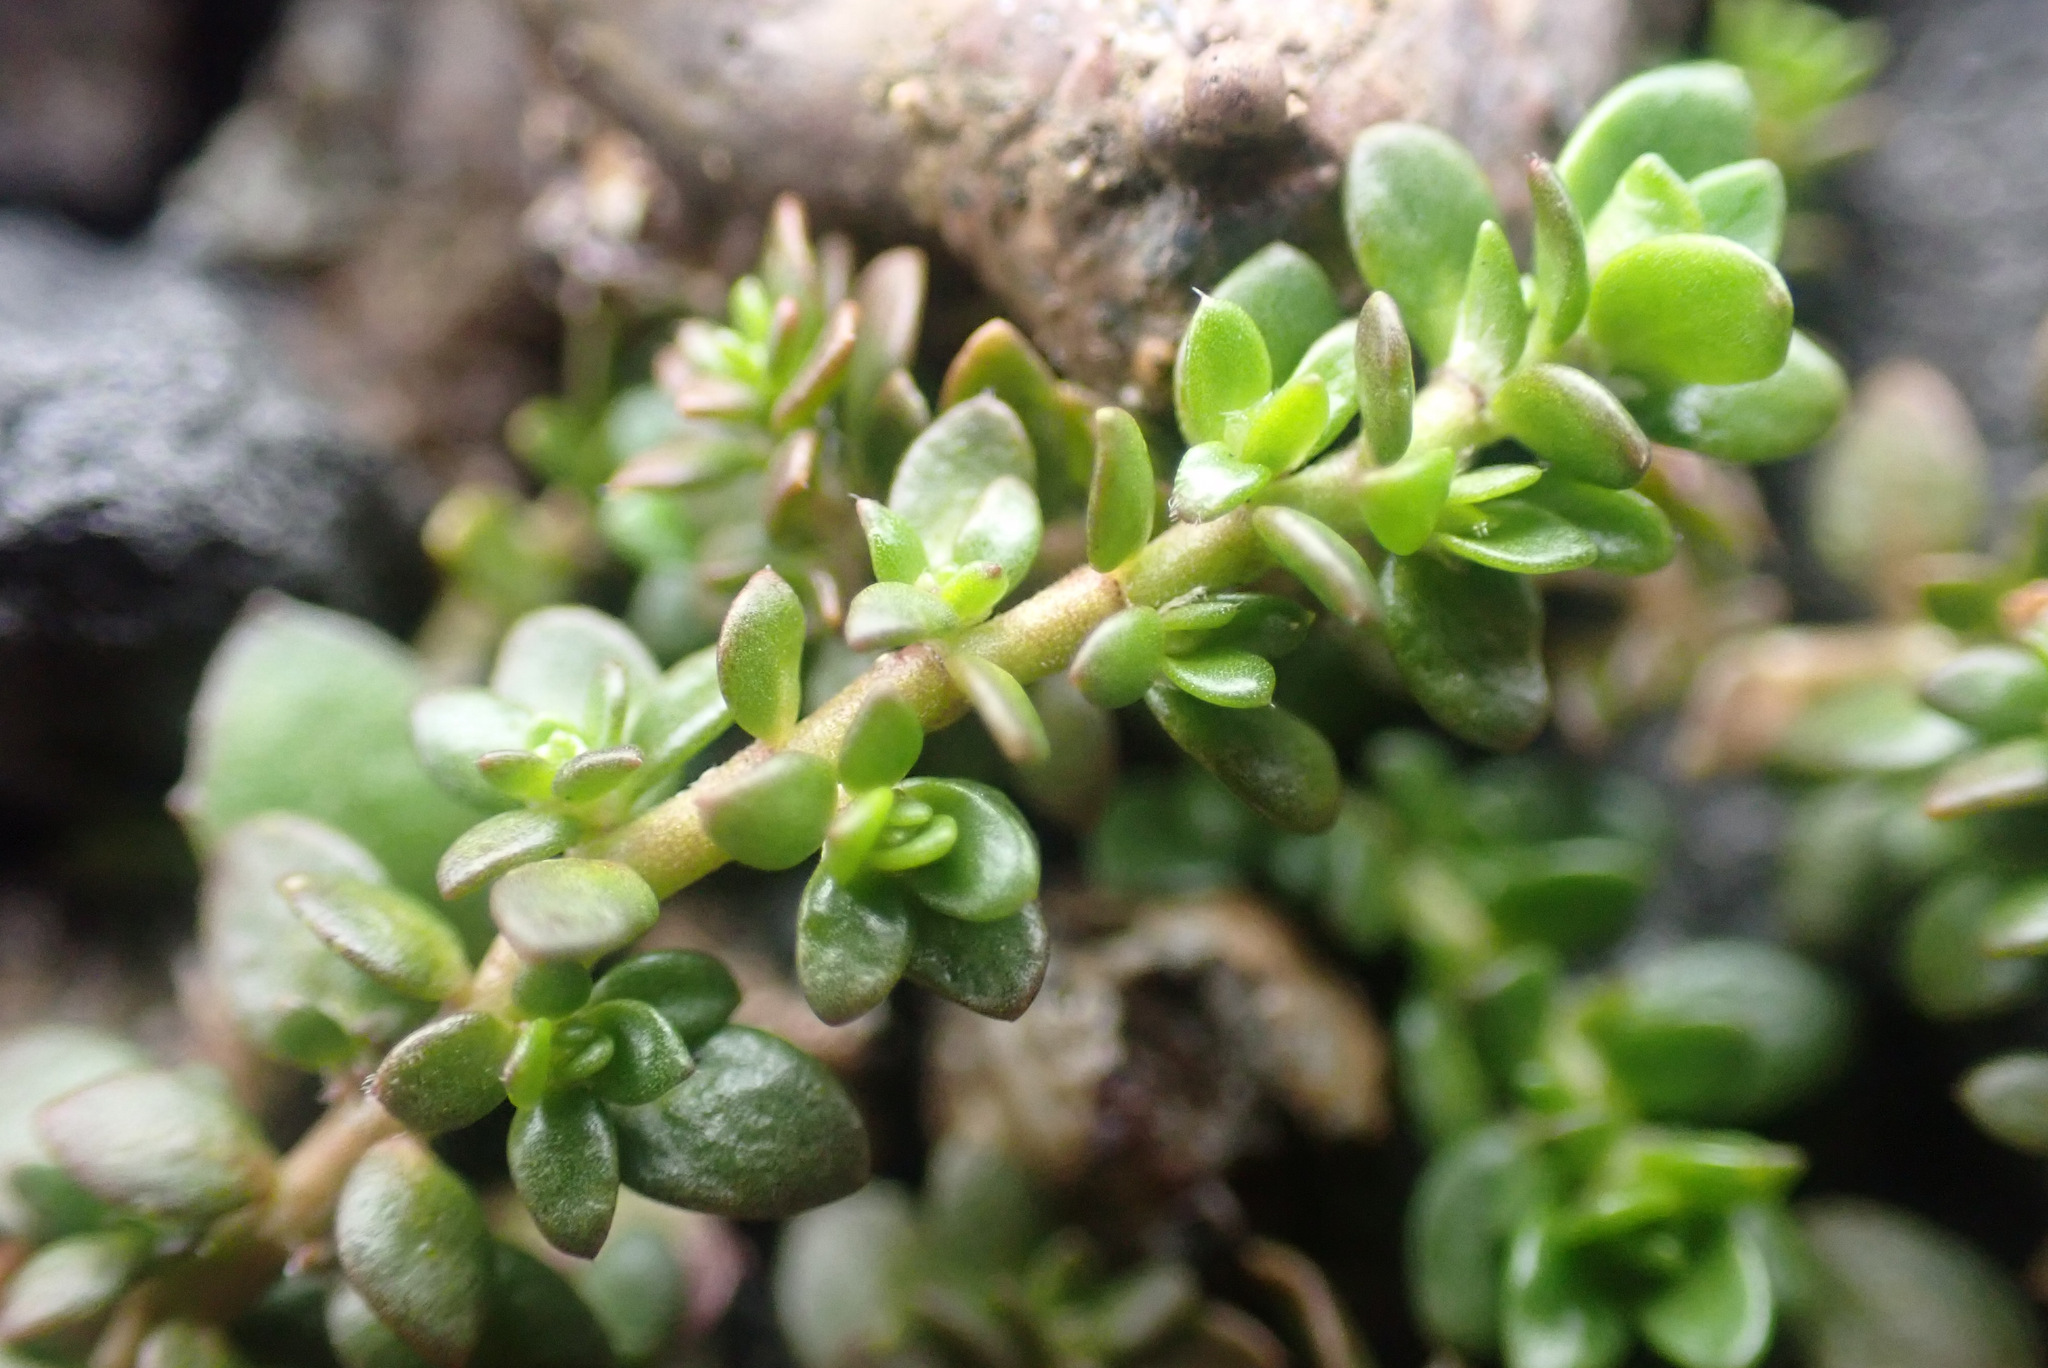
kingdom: Plantae
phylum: Tracheophyta
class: Magnoliopsida
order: Caryophyllales
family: Caryophyllaceae
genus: Herniaria
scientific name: Herniaria glabra
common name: Smooth rupturewort
